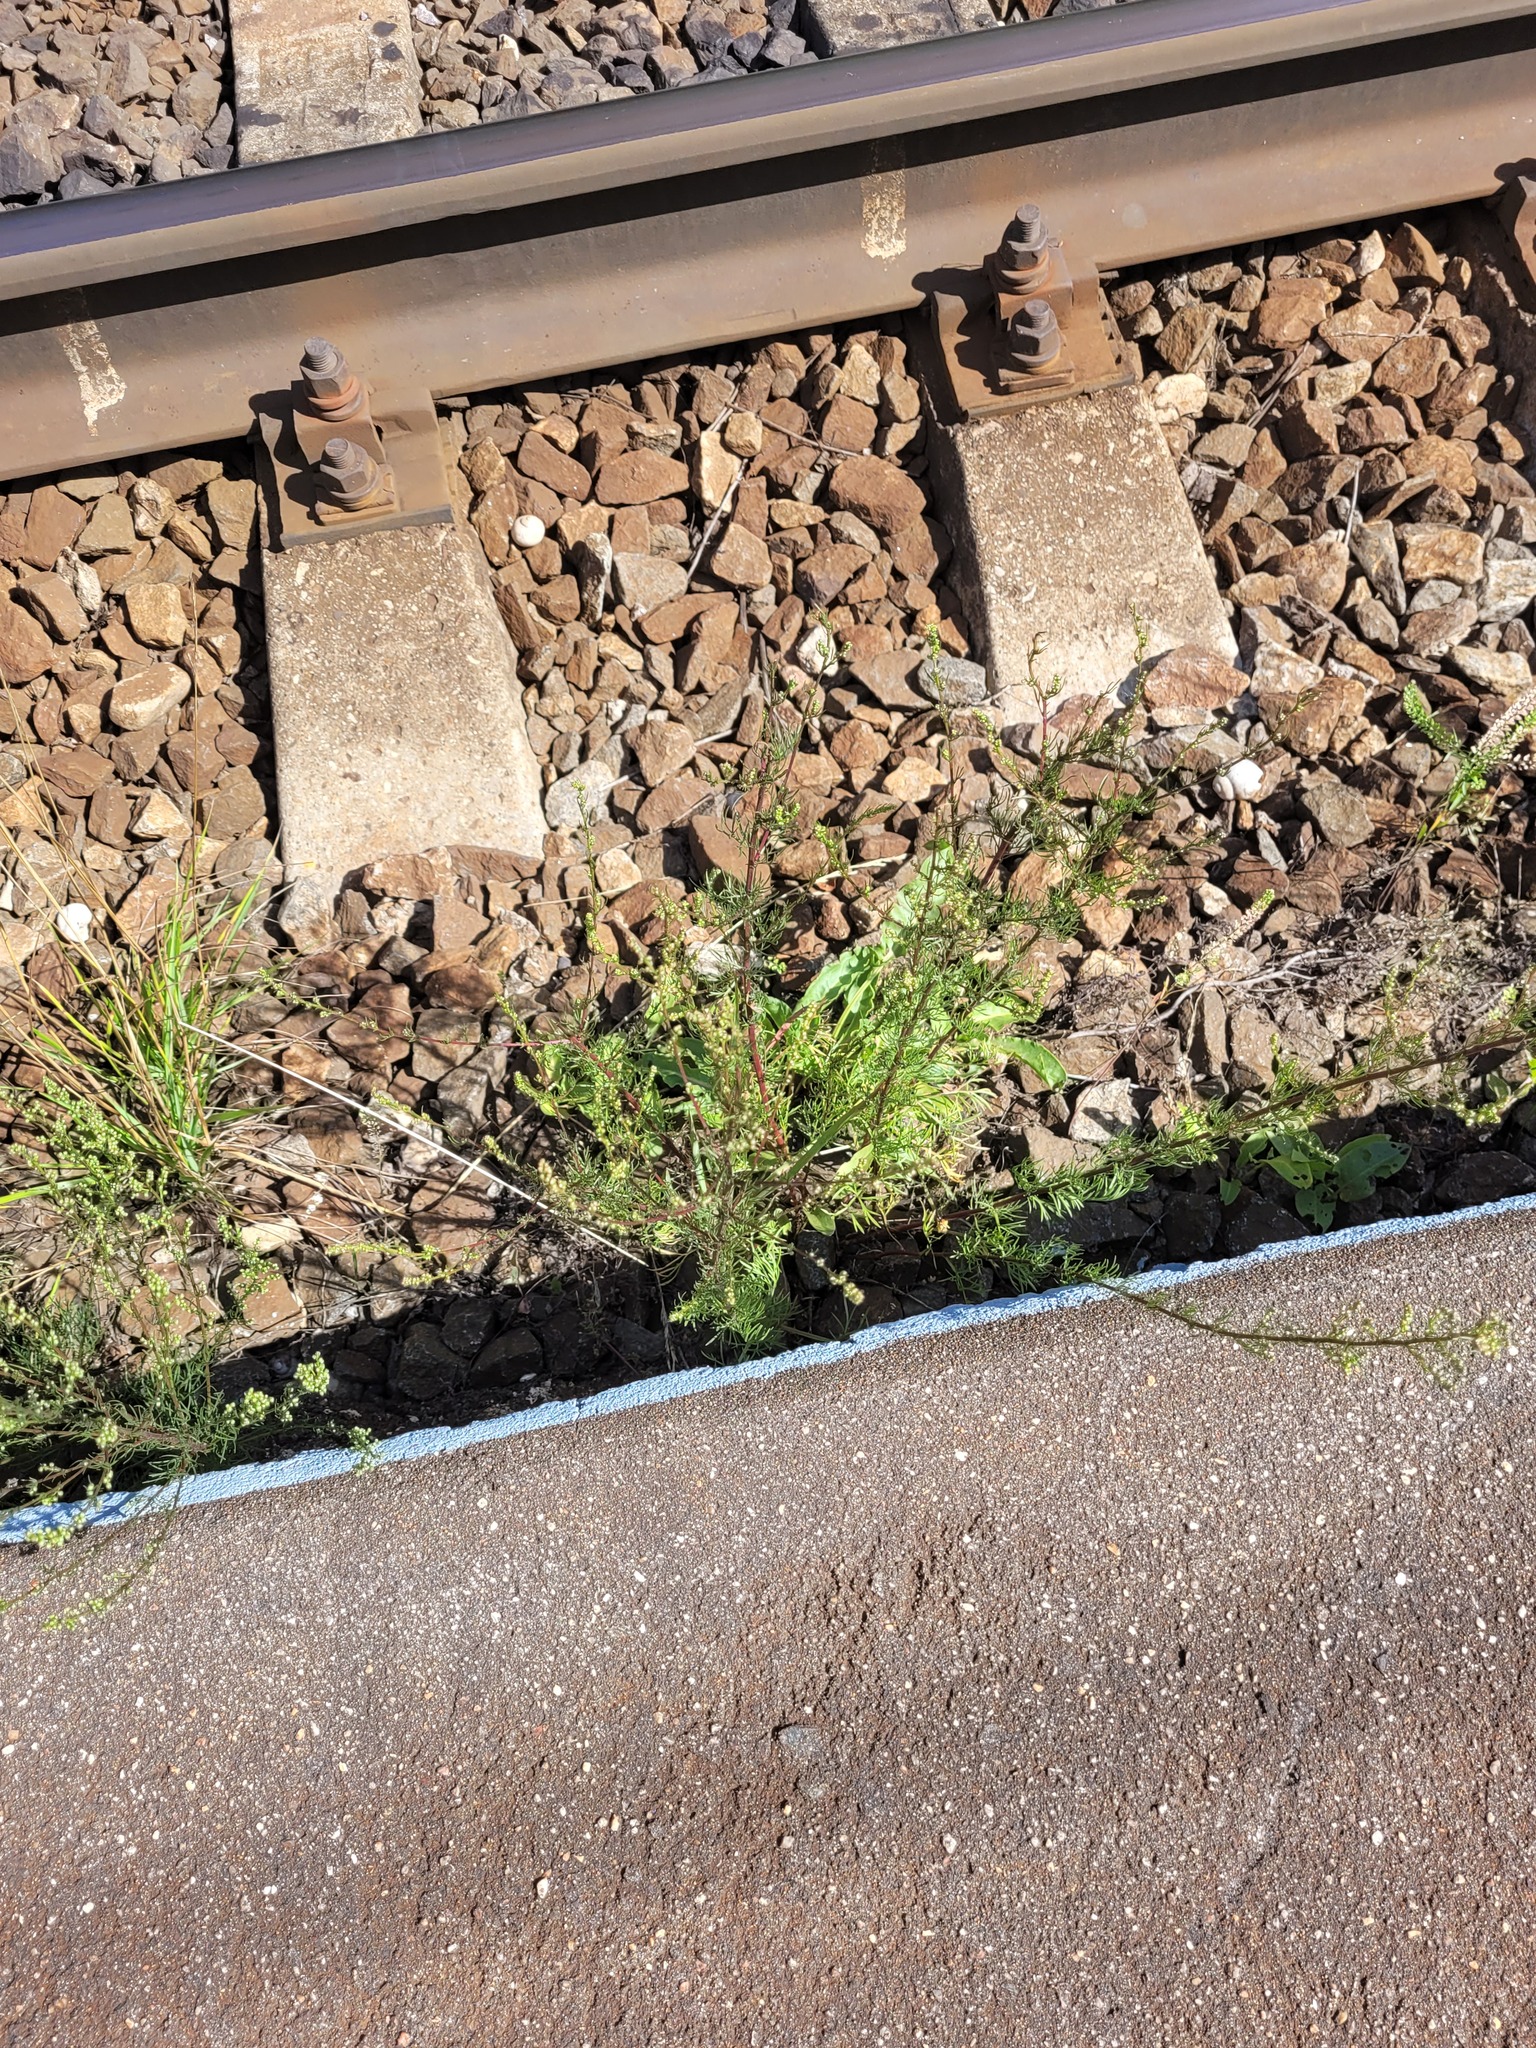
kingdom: Plantae
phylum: Tracheophyta
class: Magnoliopsida
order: Asterales
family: Asteraceae
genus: Artemisia
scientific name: Artemisia campestris
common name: Field wormwood
